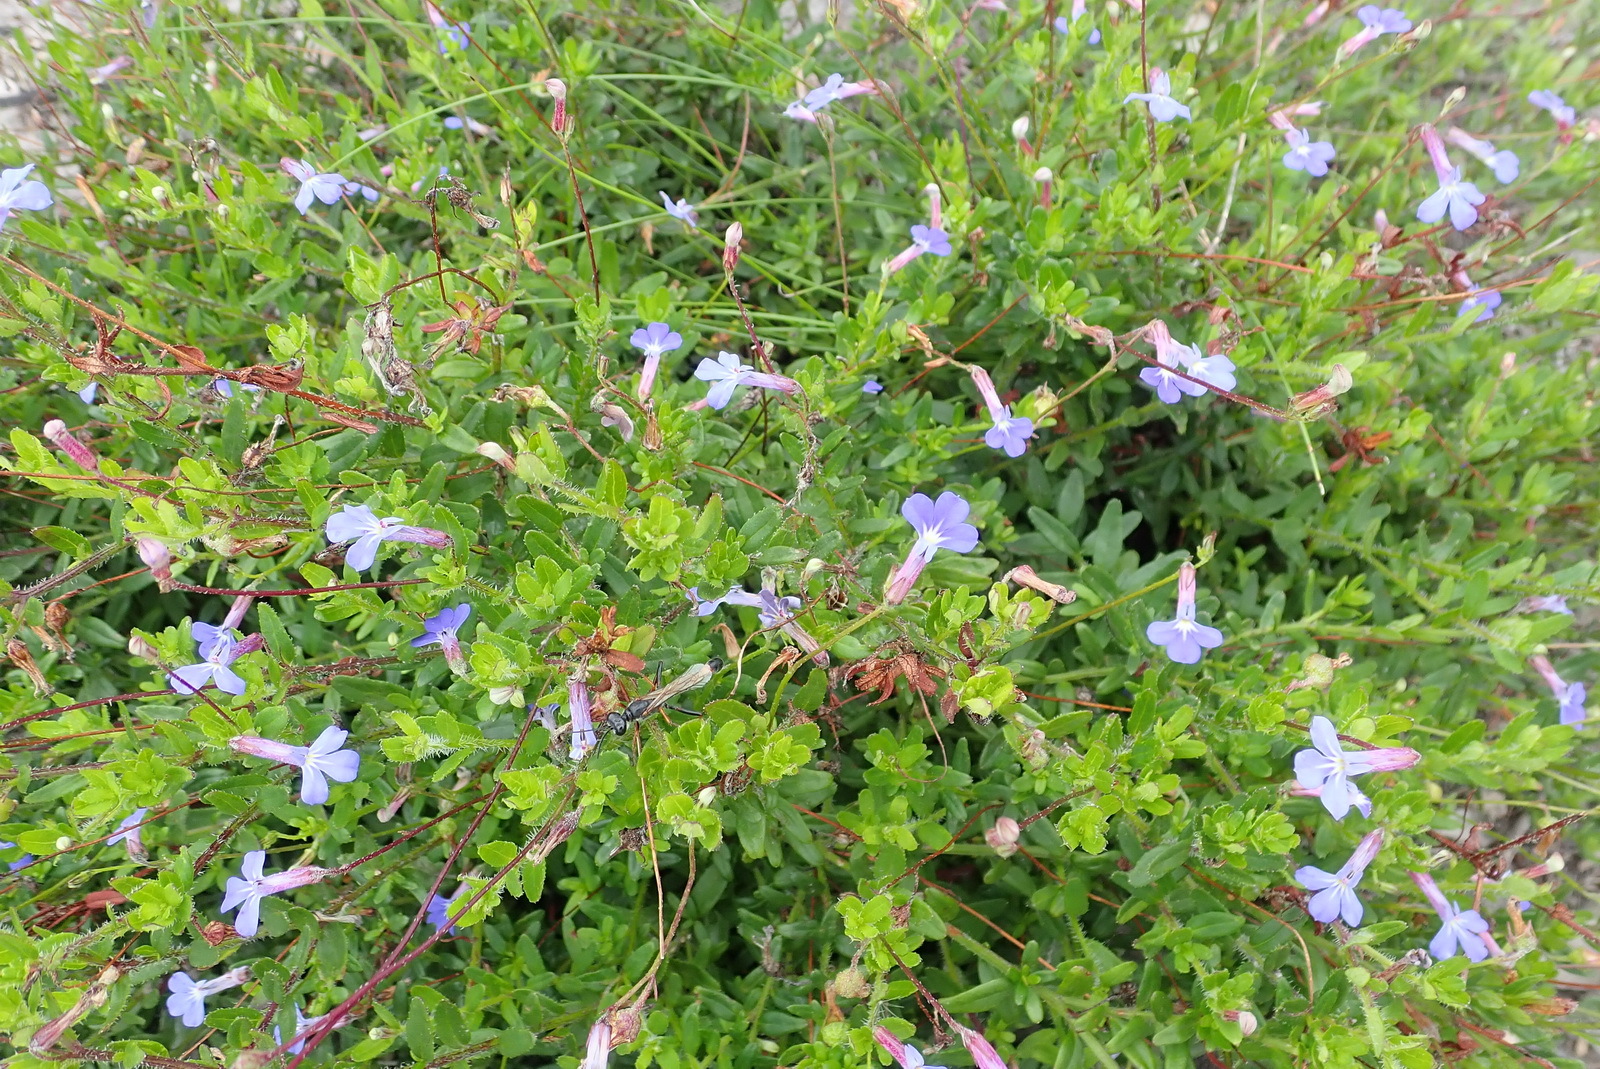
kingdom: Plantae
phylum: Tracheophyta
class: Magnoliopsida
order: Asterales
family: Campanulaceae
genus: Lobelia
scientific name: Lobelia neglecta
